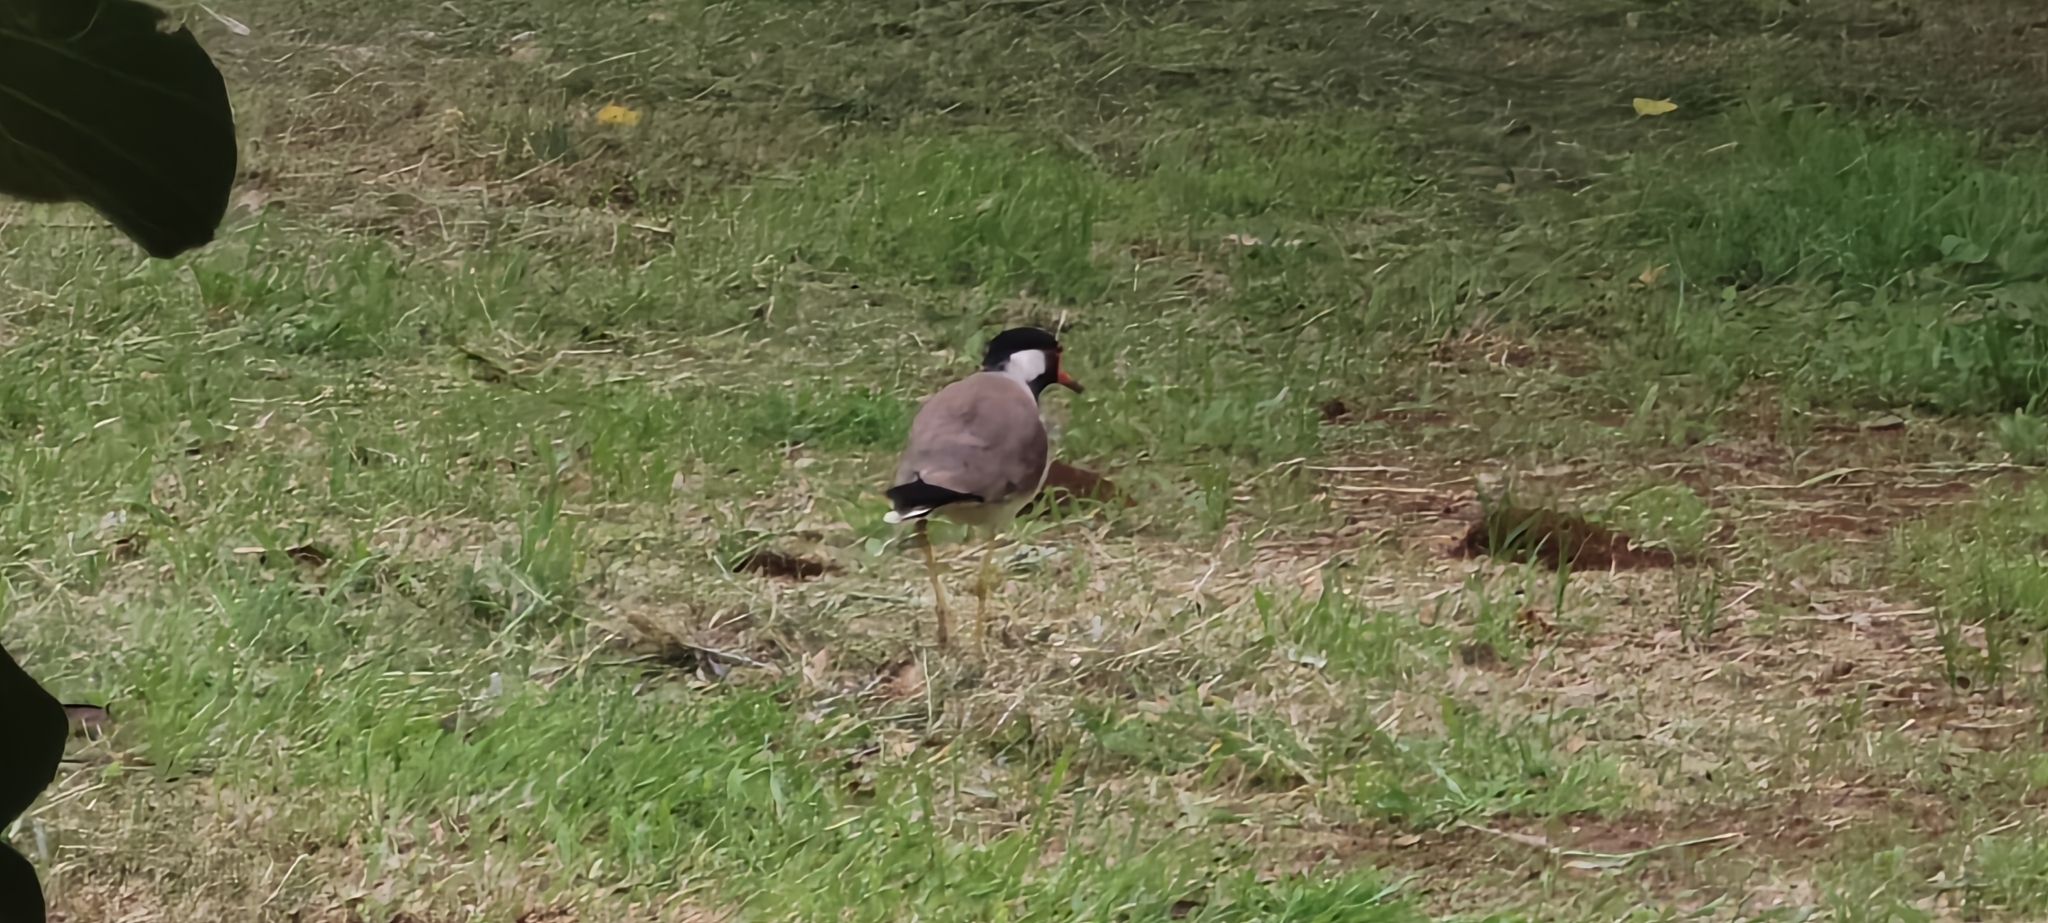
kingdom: Animalia
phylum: Chordata
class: Aves
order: Charadriiformes
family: Charadriidae
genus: Vanellus
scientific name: Vanellus indicus
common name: Red-wattled lapwing
